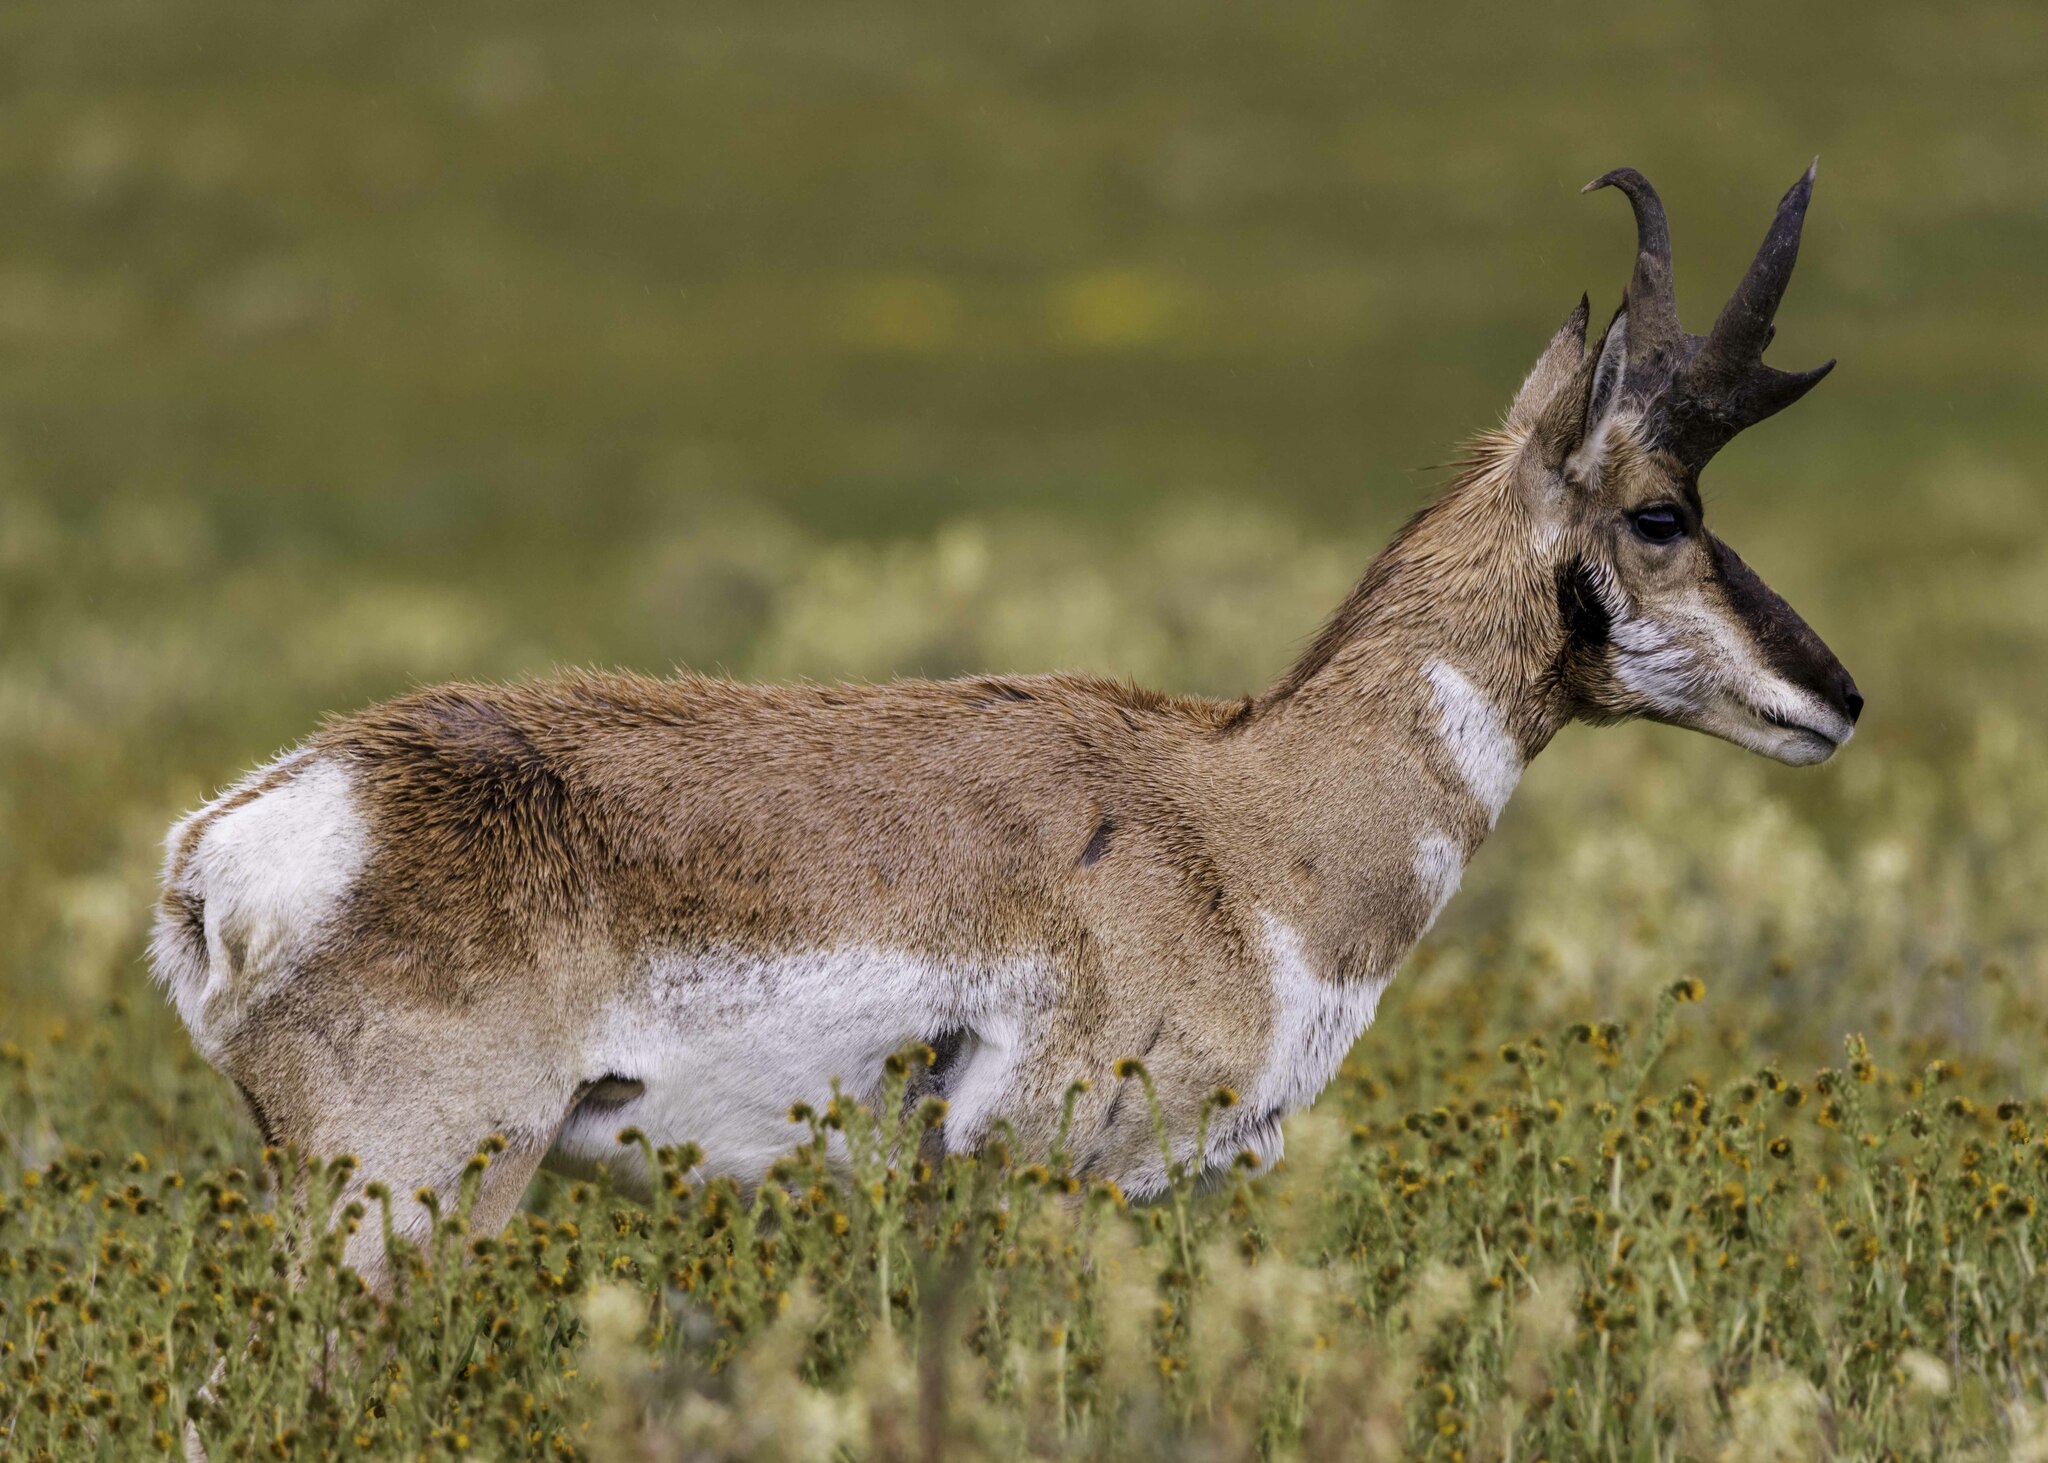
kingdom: Animalia
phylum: Chordata
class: Mammalia
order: Artiodactyla
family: Antilocapridae
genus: Antilocapra
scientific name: Antilocapra americana
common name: Pronghorn
